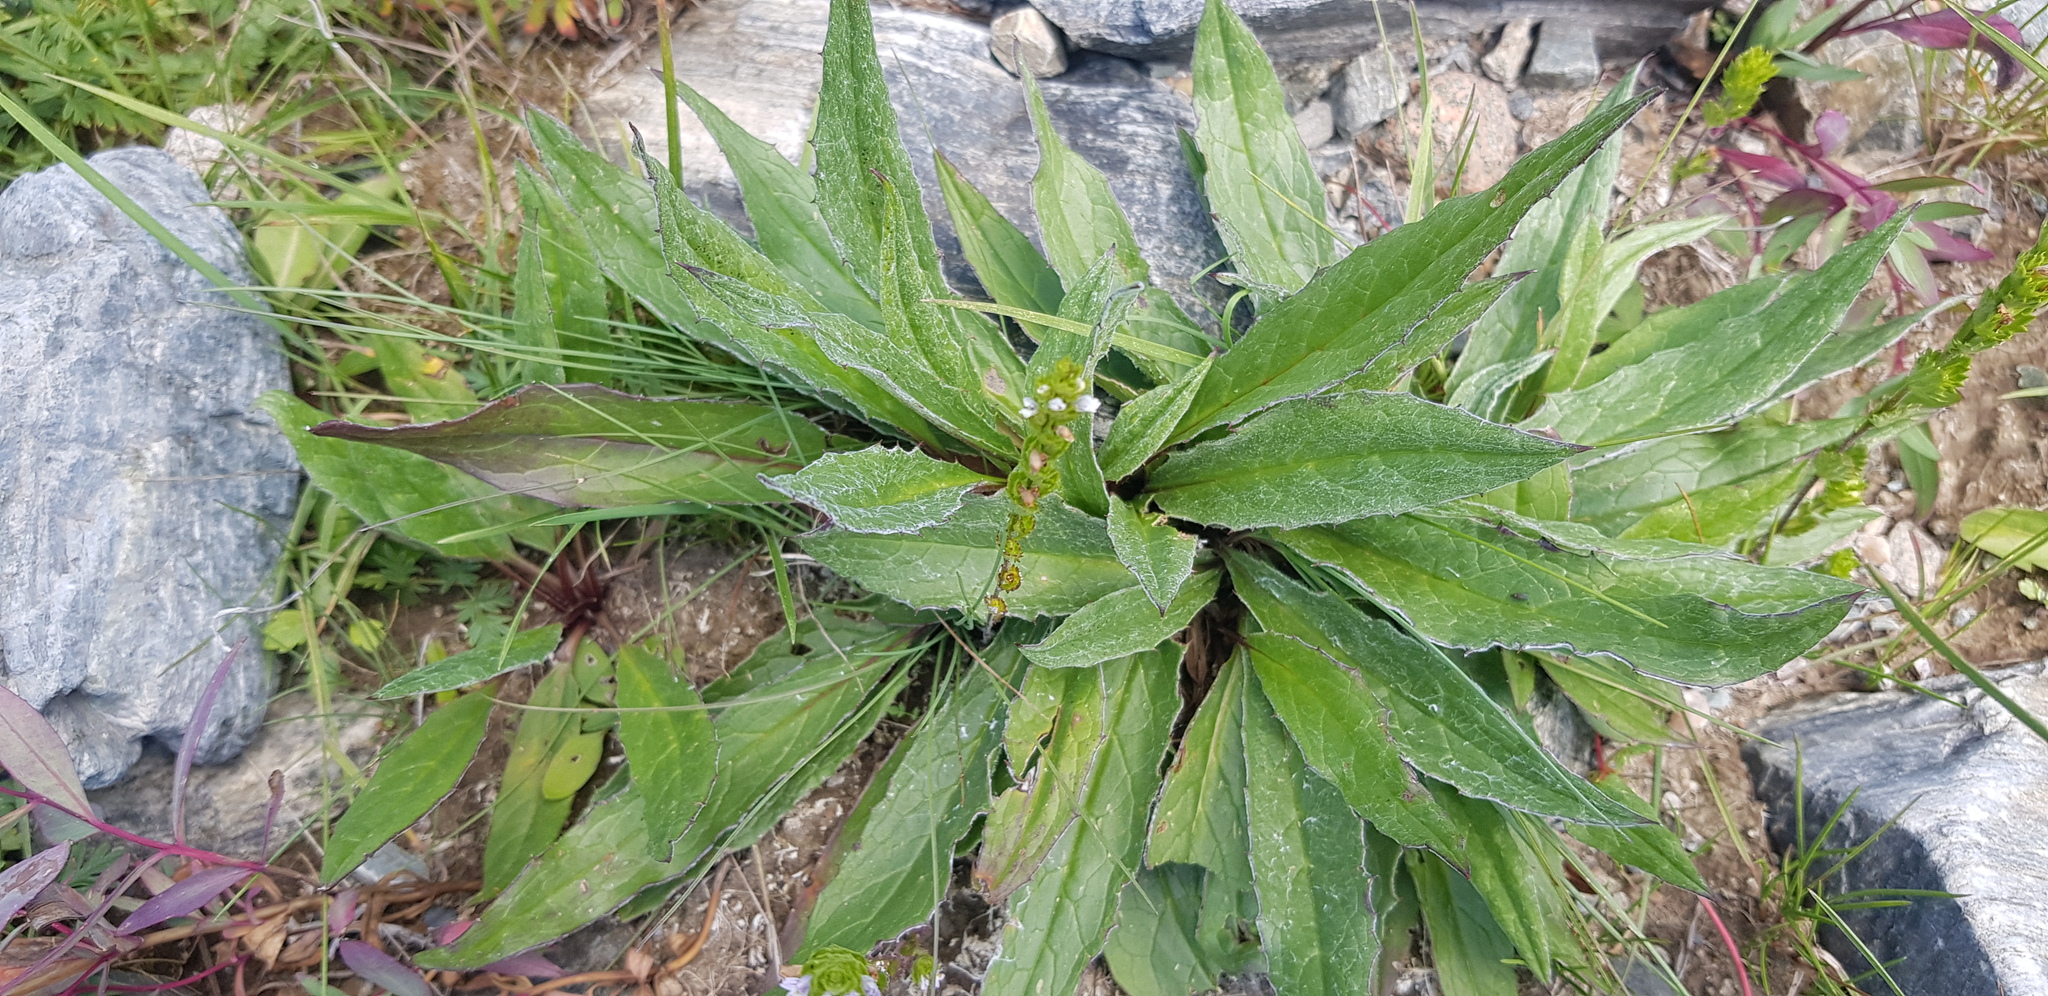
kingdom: Plantae
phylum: Tracheophyta
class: Magnoliopsida
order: Asterales
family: Asteraceae
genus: Saussurea
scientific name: Saussurea alpina
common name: Alpine saw-wort
